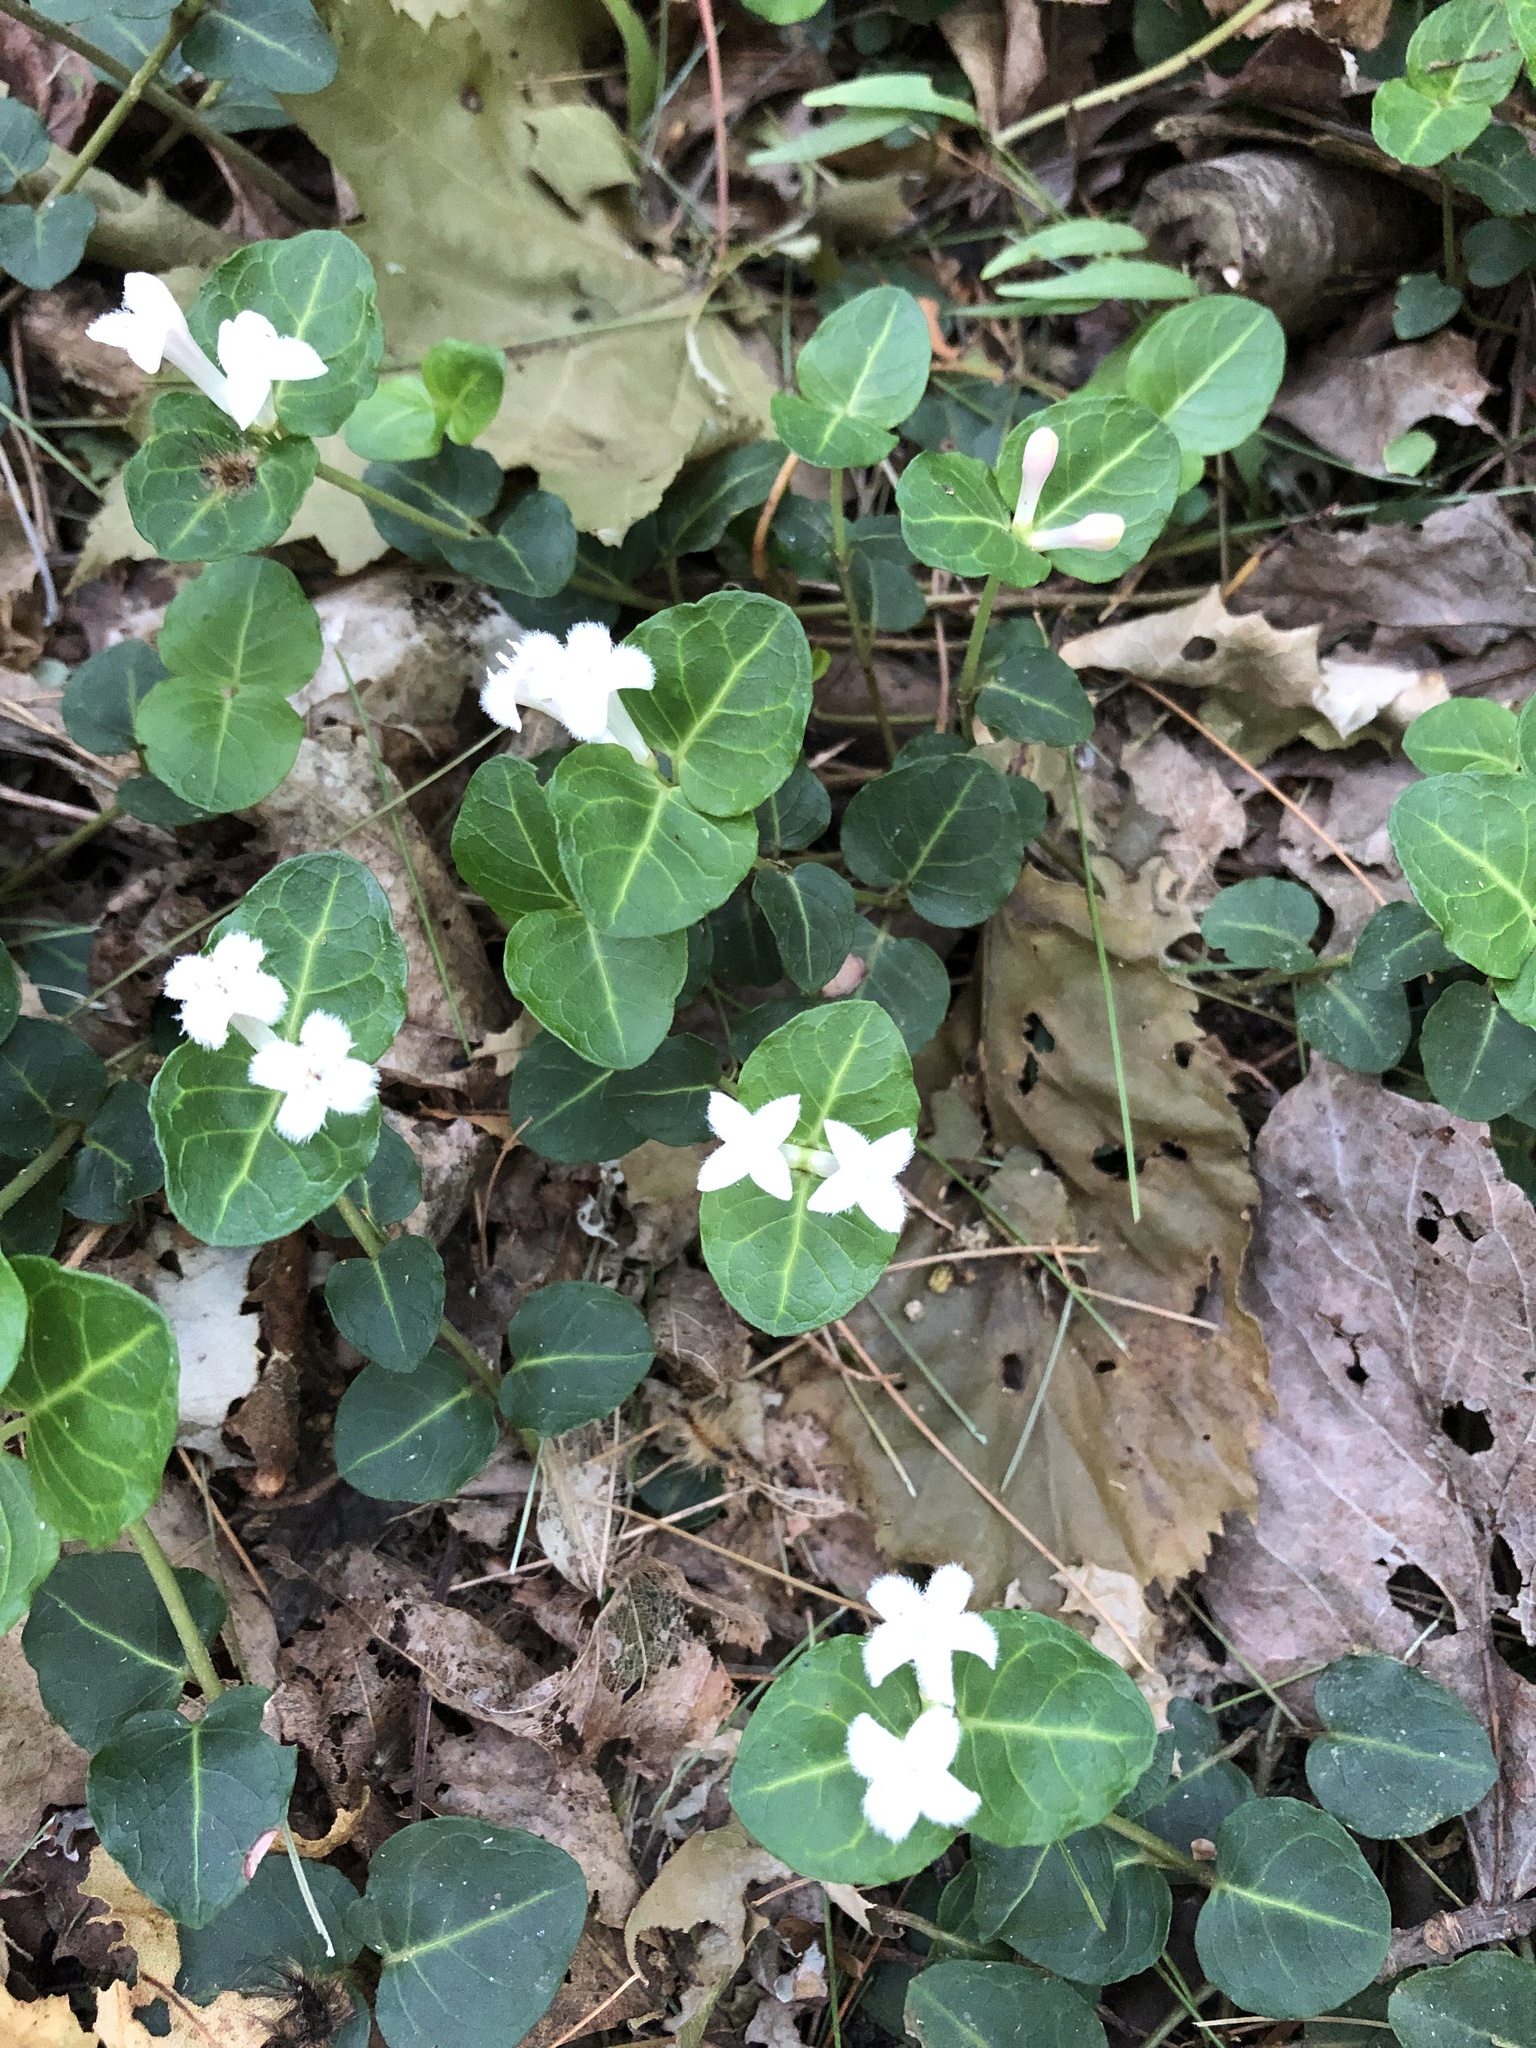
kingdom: Plantae
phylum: Tracheophyta
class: Magnoliopsida
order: Gentianales
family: Rubiaceae
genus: Mitchella
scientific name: Mitchella repens
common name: Partridge-berry
